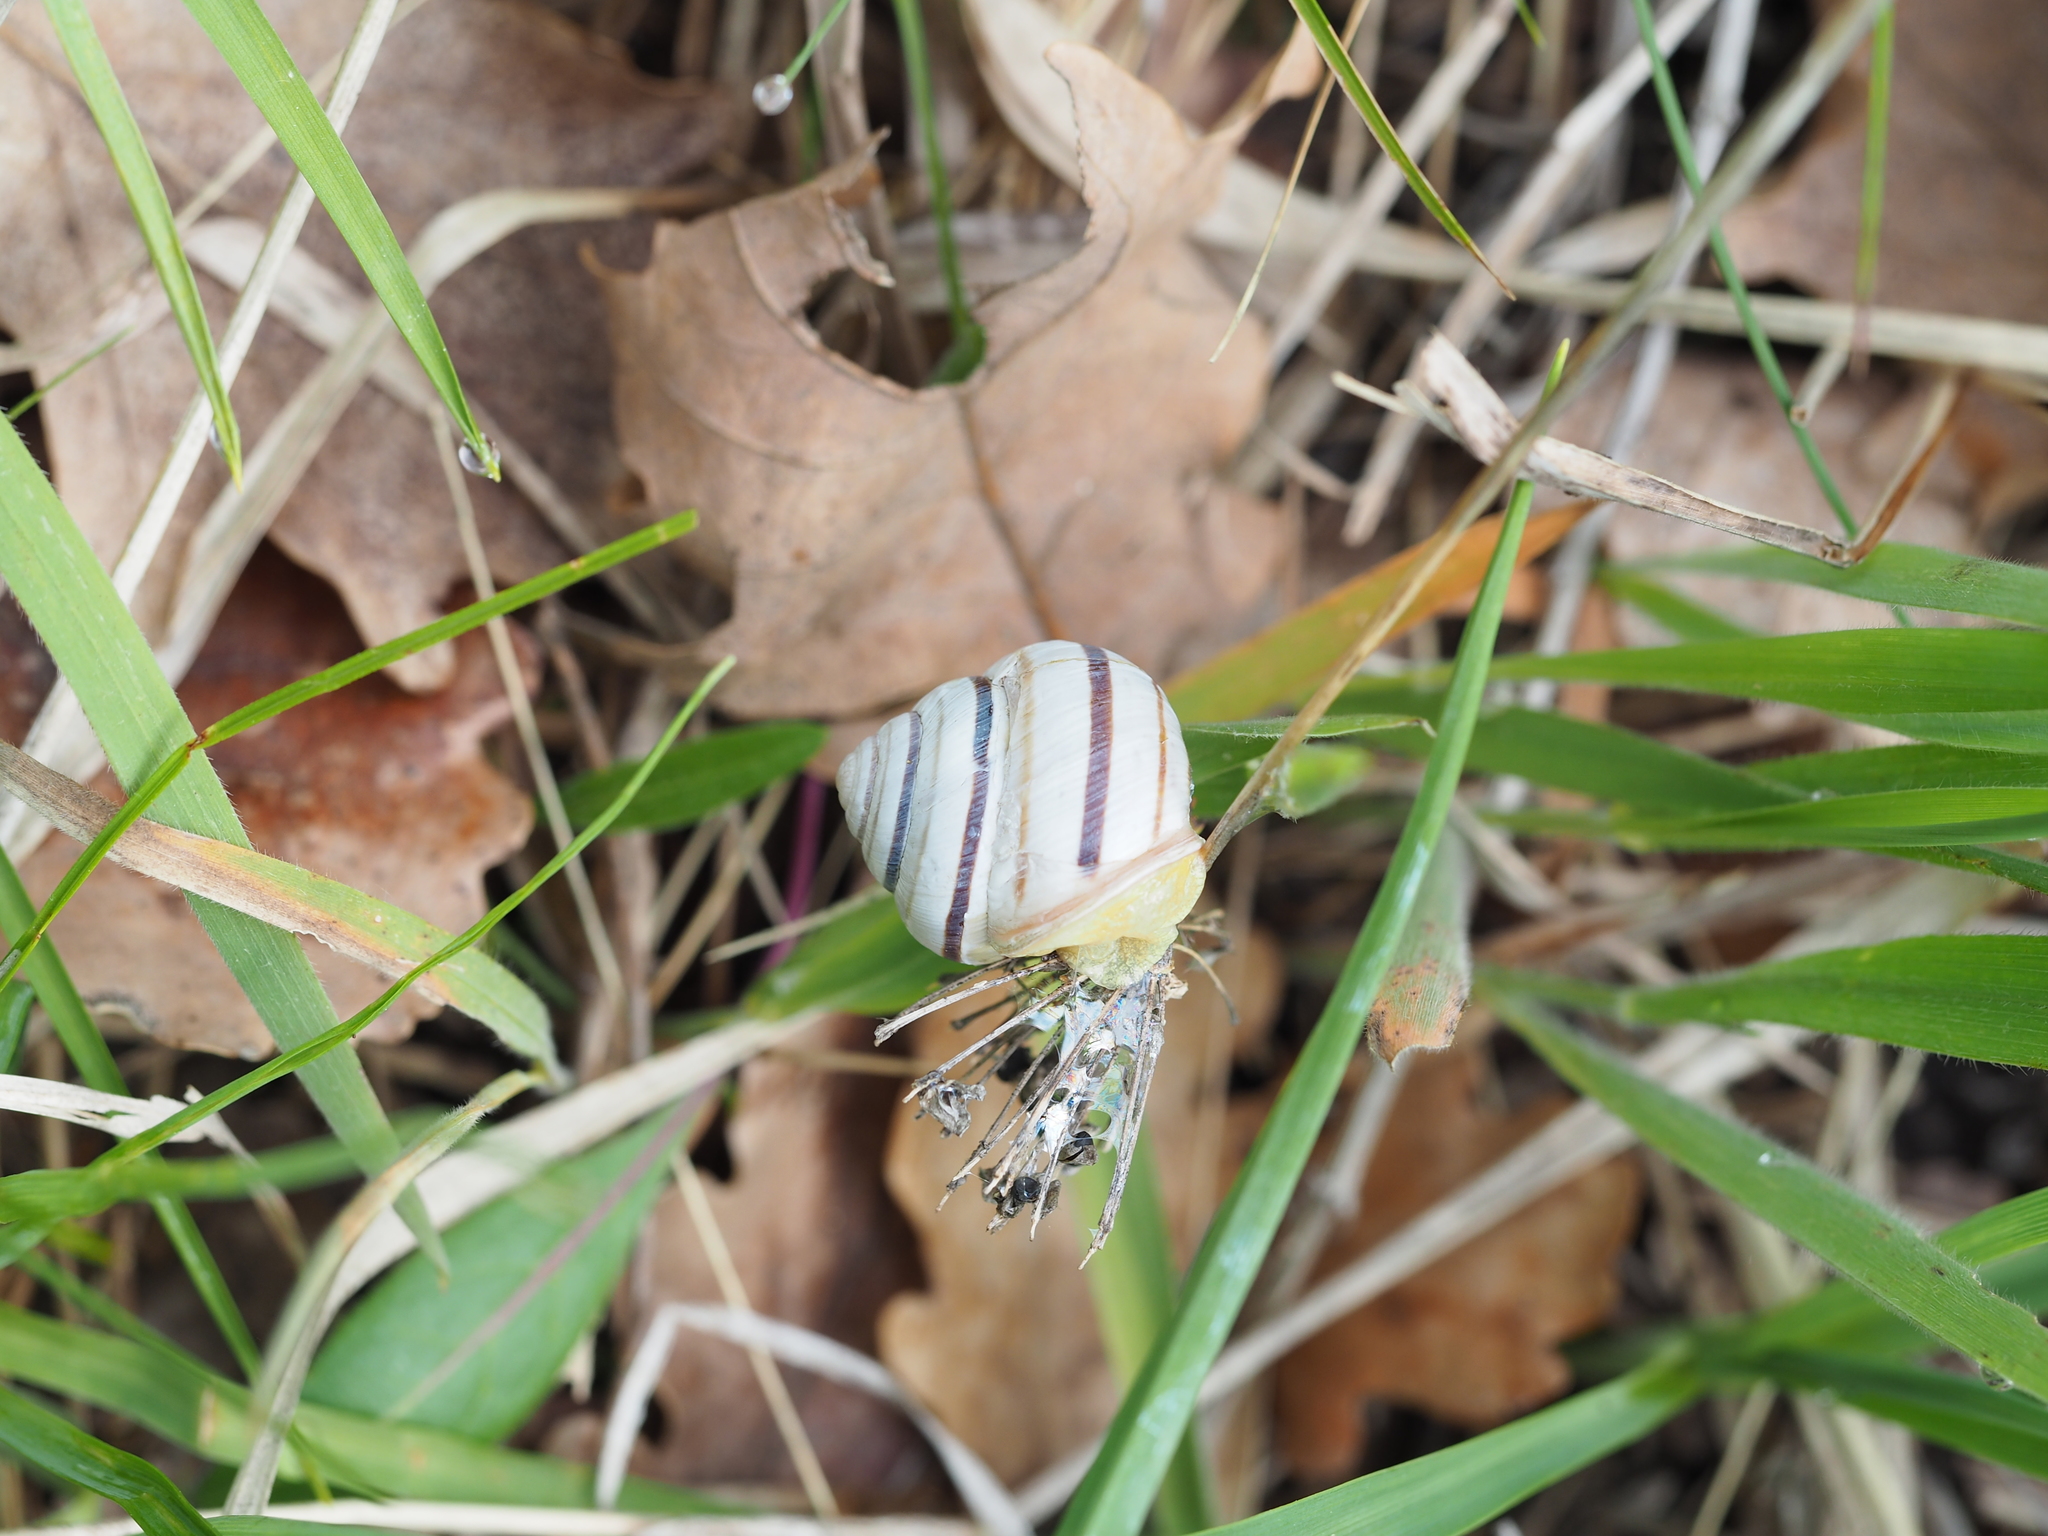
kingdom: Animalia
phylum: Mollusca
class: Gastropoda
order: Stylommatophora
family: Helicidae
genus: Caucasotachea
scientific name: Caucasotachea vindobonensis
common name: European helicid land snail
